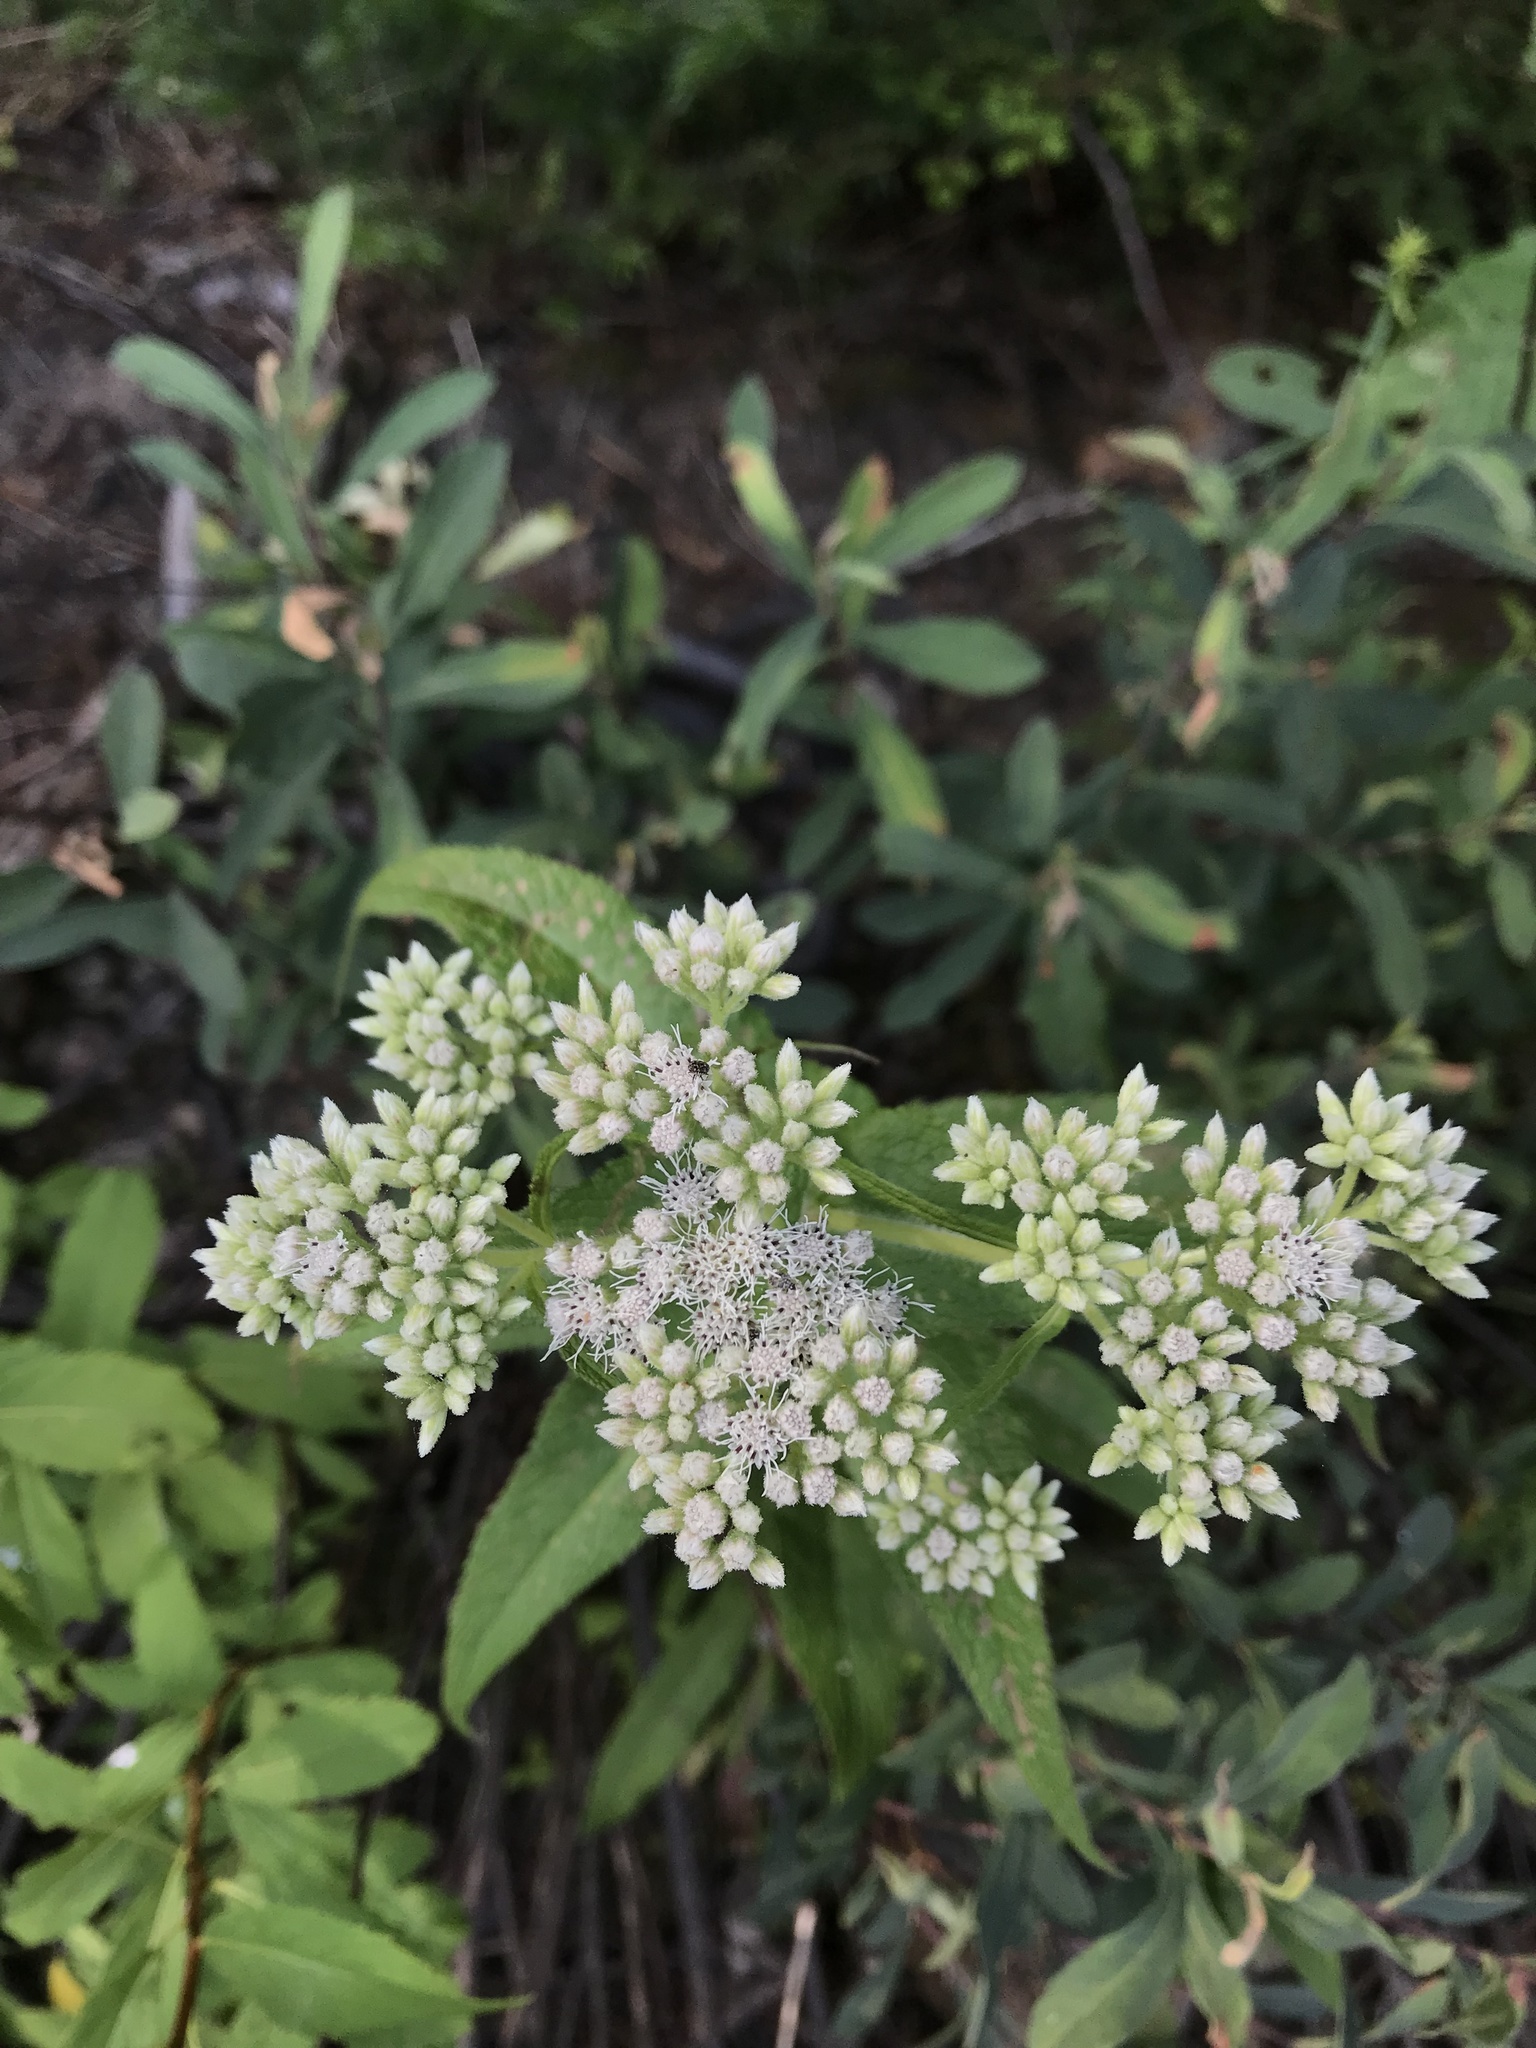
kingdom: Plantae
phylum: Tracheophyta
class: Magnoliopsida
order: Asterales
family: Asteraceae
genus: Eupatorium
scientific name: Eupatorium perfoliatum
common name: Boneset
